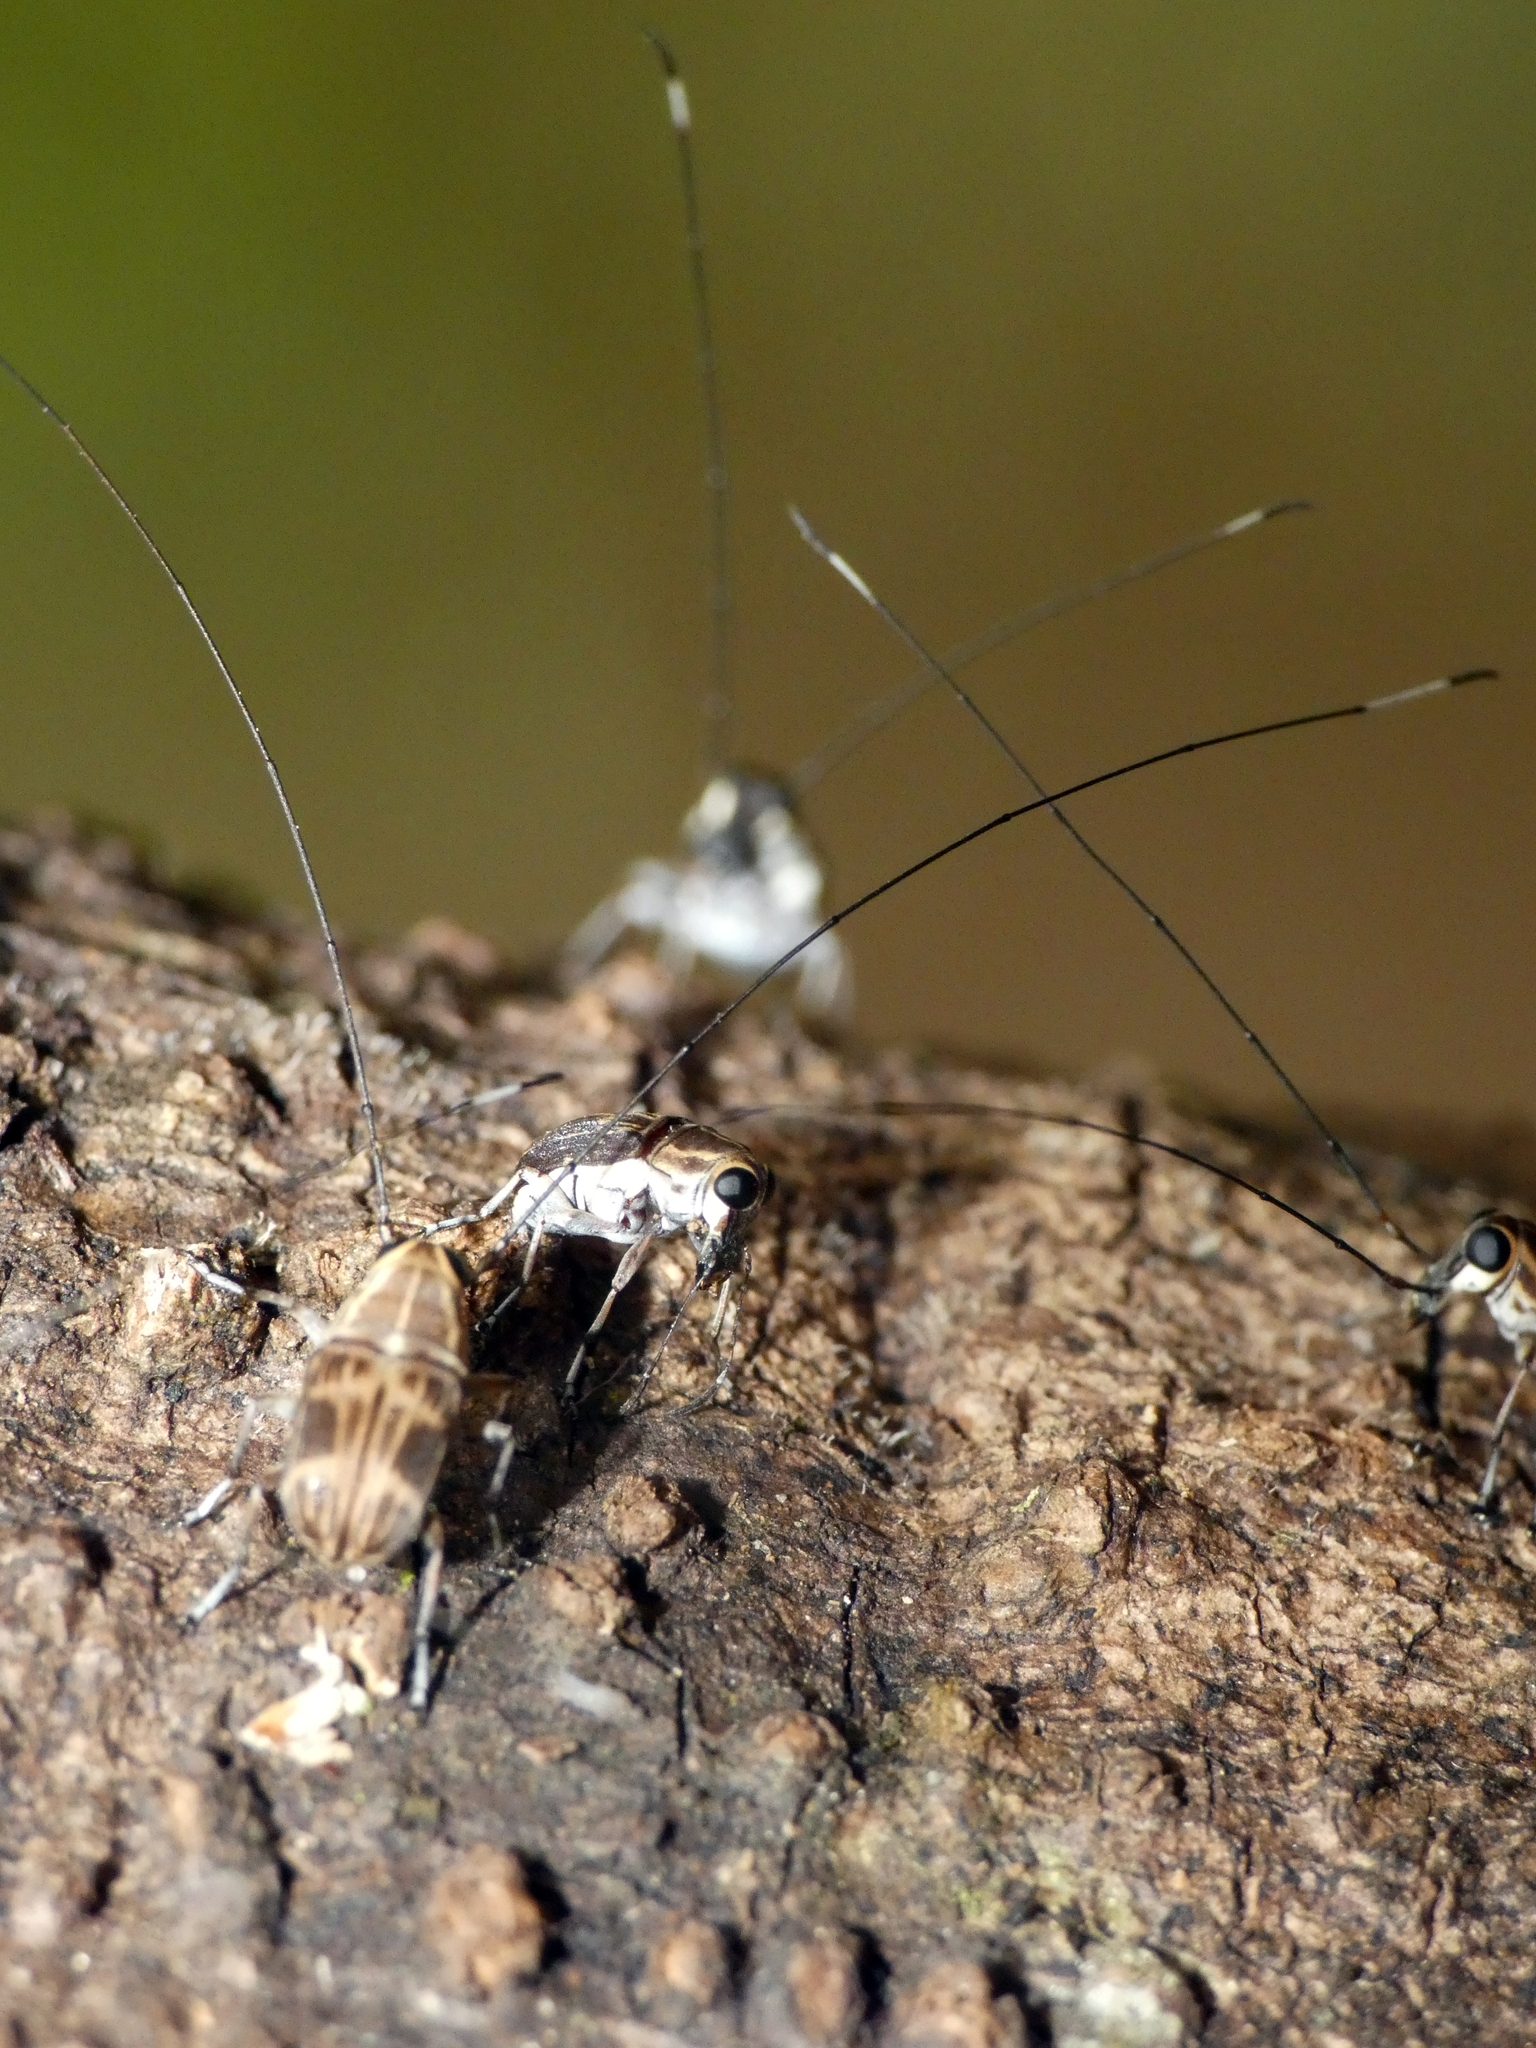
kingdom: Animalia
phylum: Arthropoda
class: Insecta
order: Coleoptera
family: Anthribidae
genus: Hucus
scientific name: Hucus persimilis
